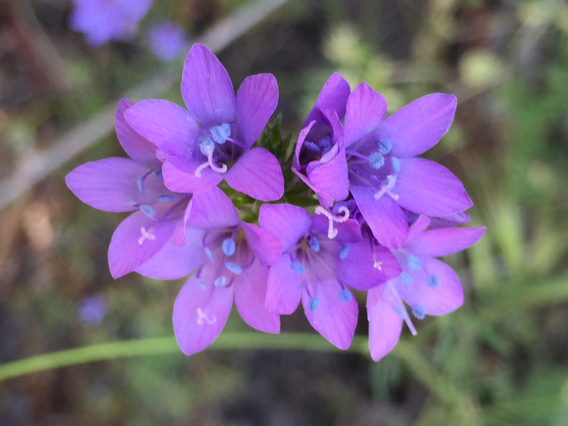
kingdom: Plantae
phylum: Tracheophyta
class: Magnoliopsida
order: Ericales
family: Polemoniaceae
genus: Gilia
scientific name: Gilia achilleifolia
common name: California gily-flower
